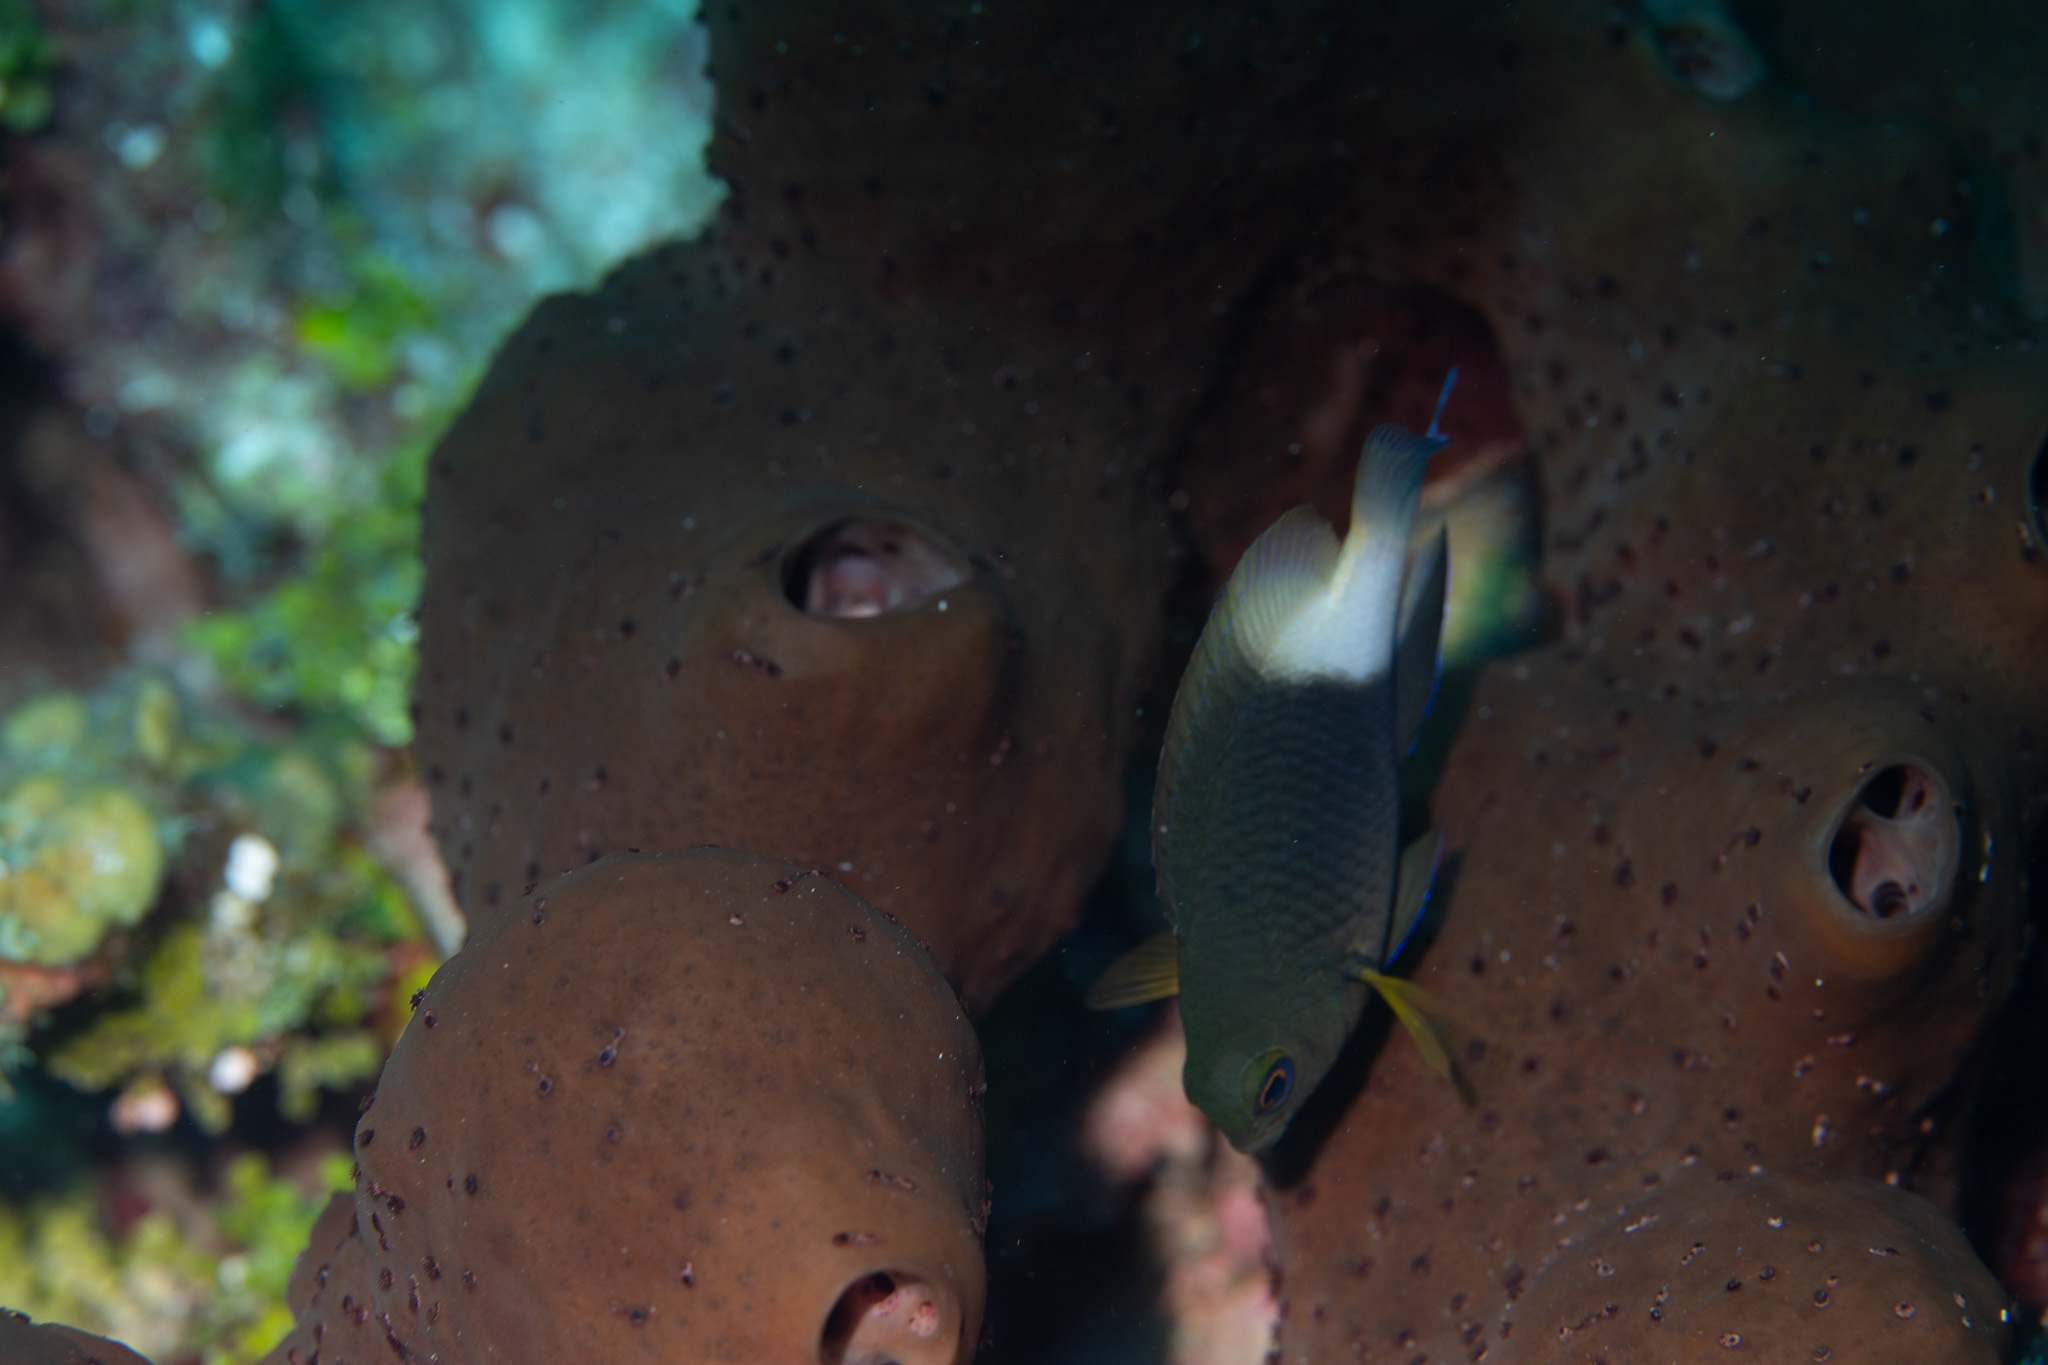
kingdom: Animalia
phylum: Chordata
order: Perciformes
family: Pomacentridae
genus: Stegastes
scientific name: Stegastes partitus
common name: Bicolor damselfish
